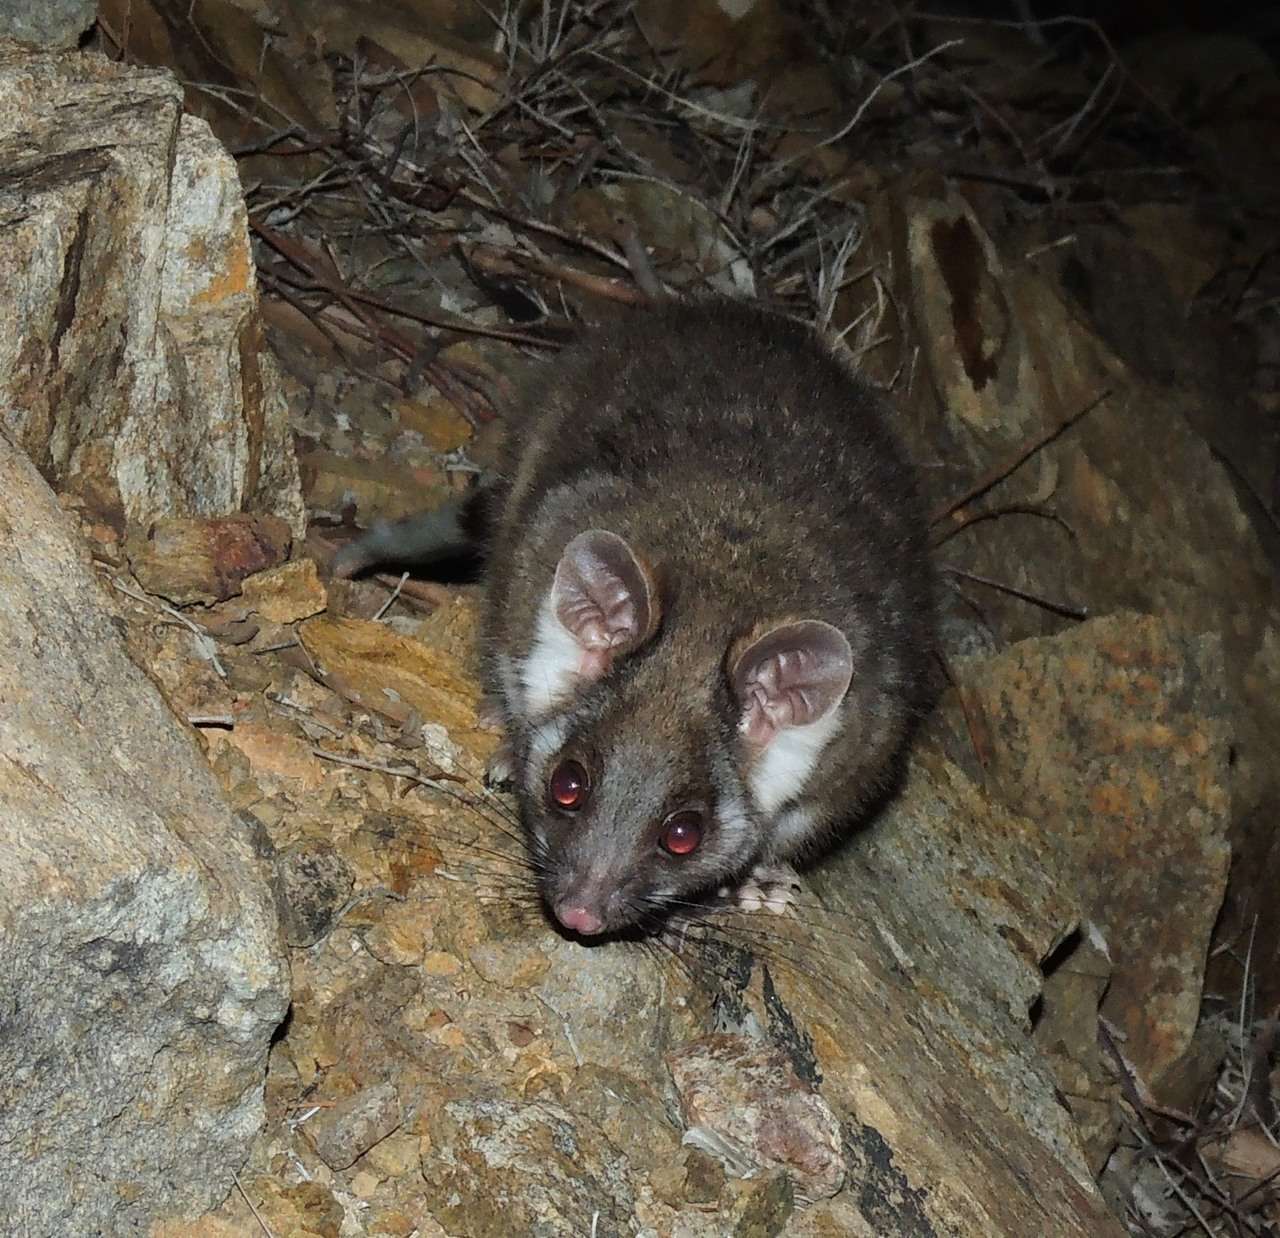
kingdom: Animalia
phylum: Chordata
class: Mammalia
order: Diprotodontia
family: Pseudocheiridae
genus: Pseudocheirus
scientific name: Pseudocheirus peregrinus
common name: Common ringtail possum
